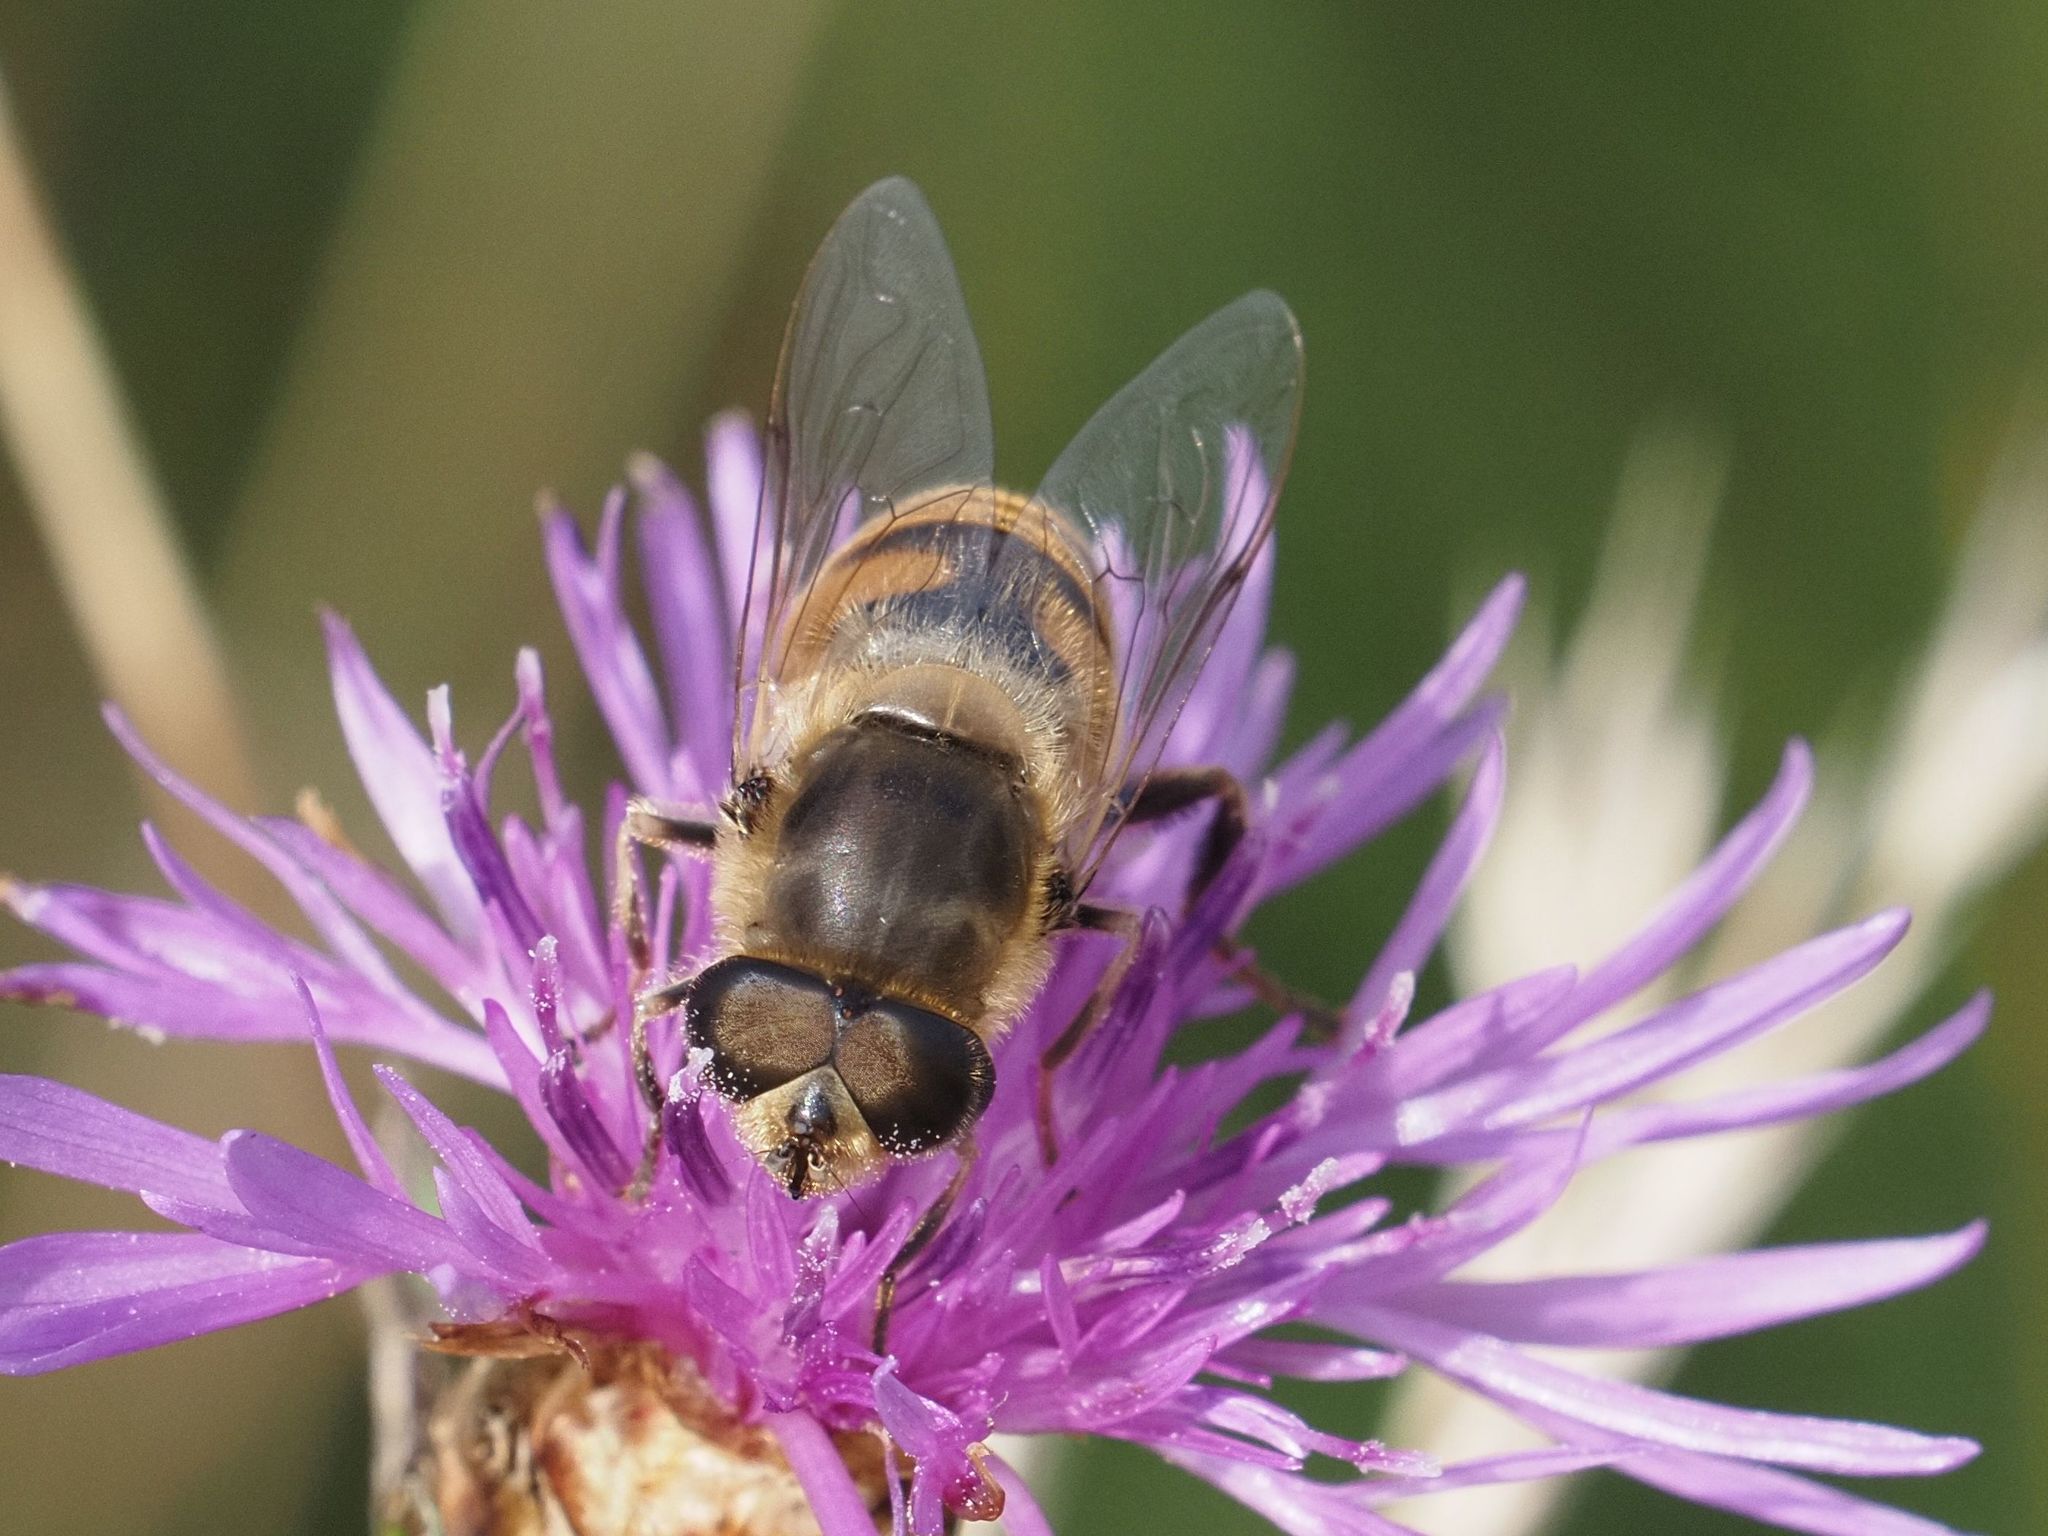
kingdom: Animalia
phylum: Arthropoda
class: Insecta
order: Diptera
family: Syrphidae
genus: Eristalis
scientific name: Eristalis tenax
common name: Drone fly
